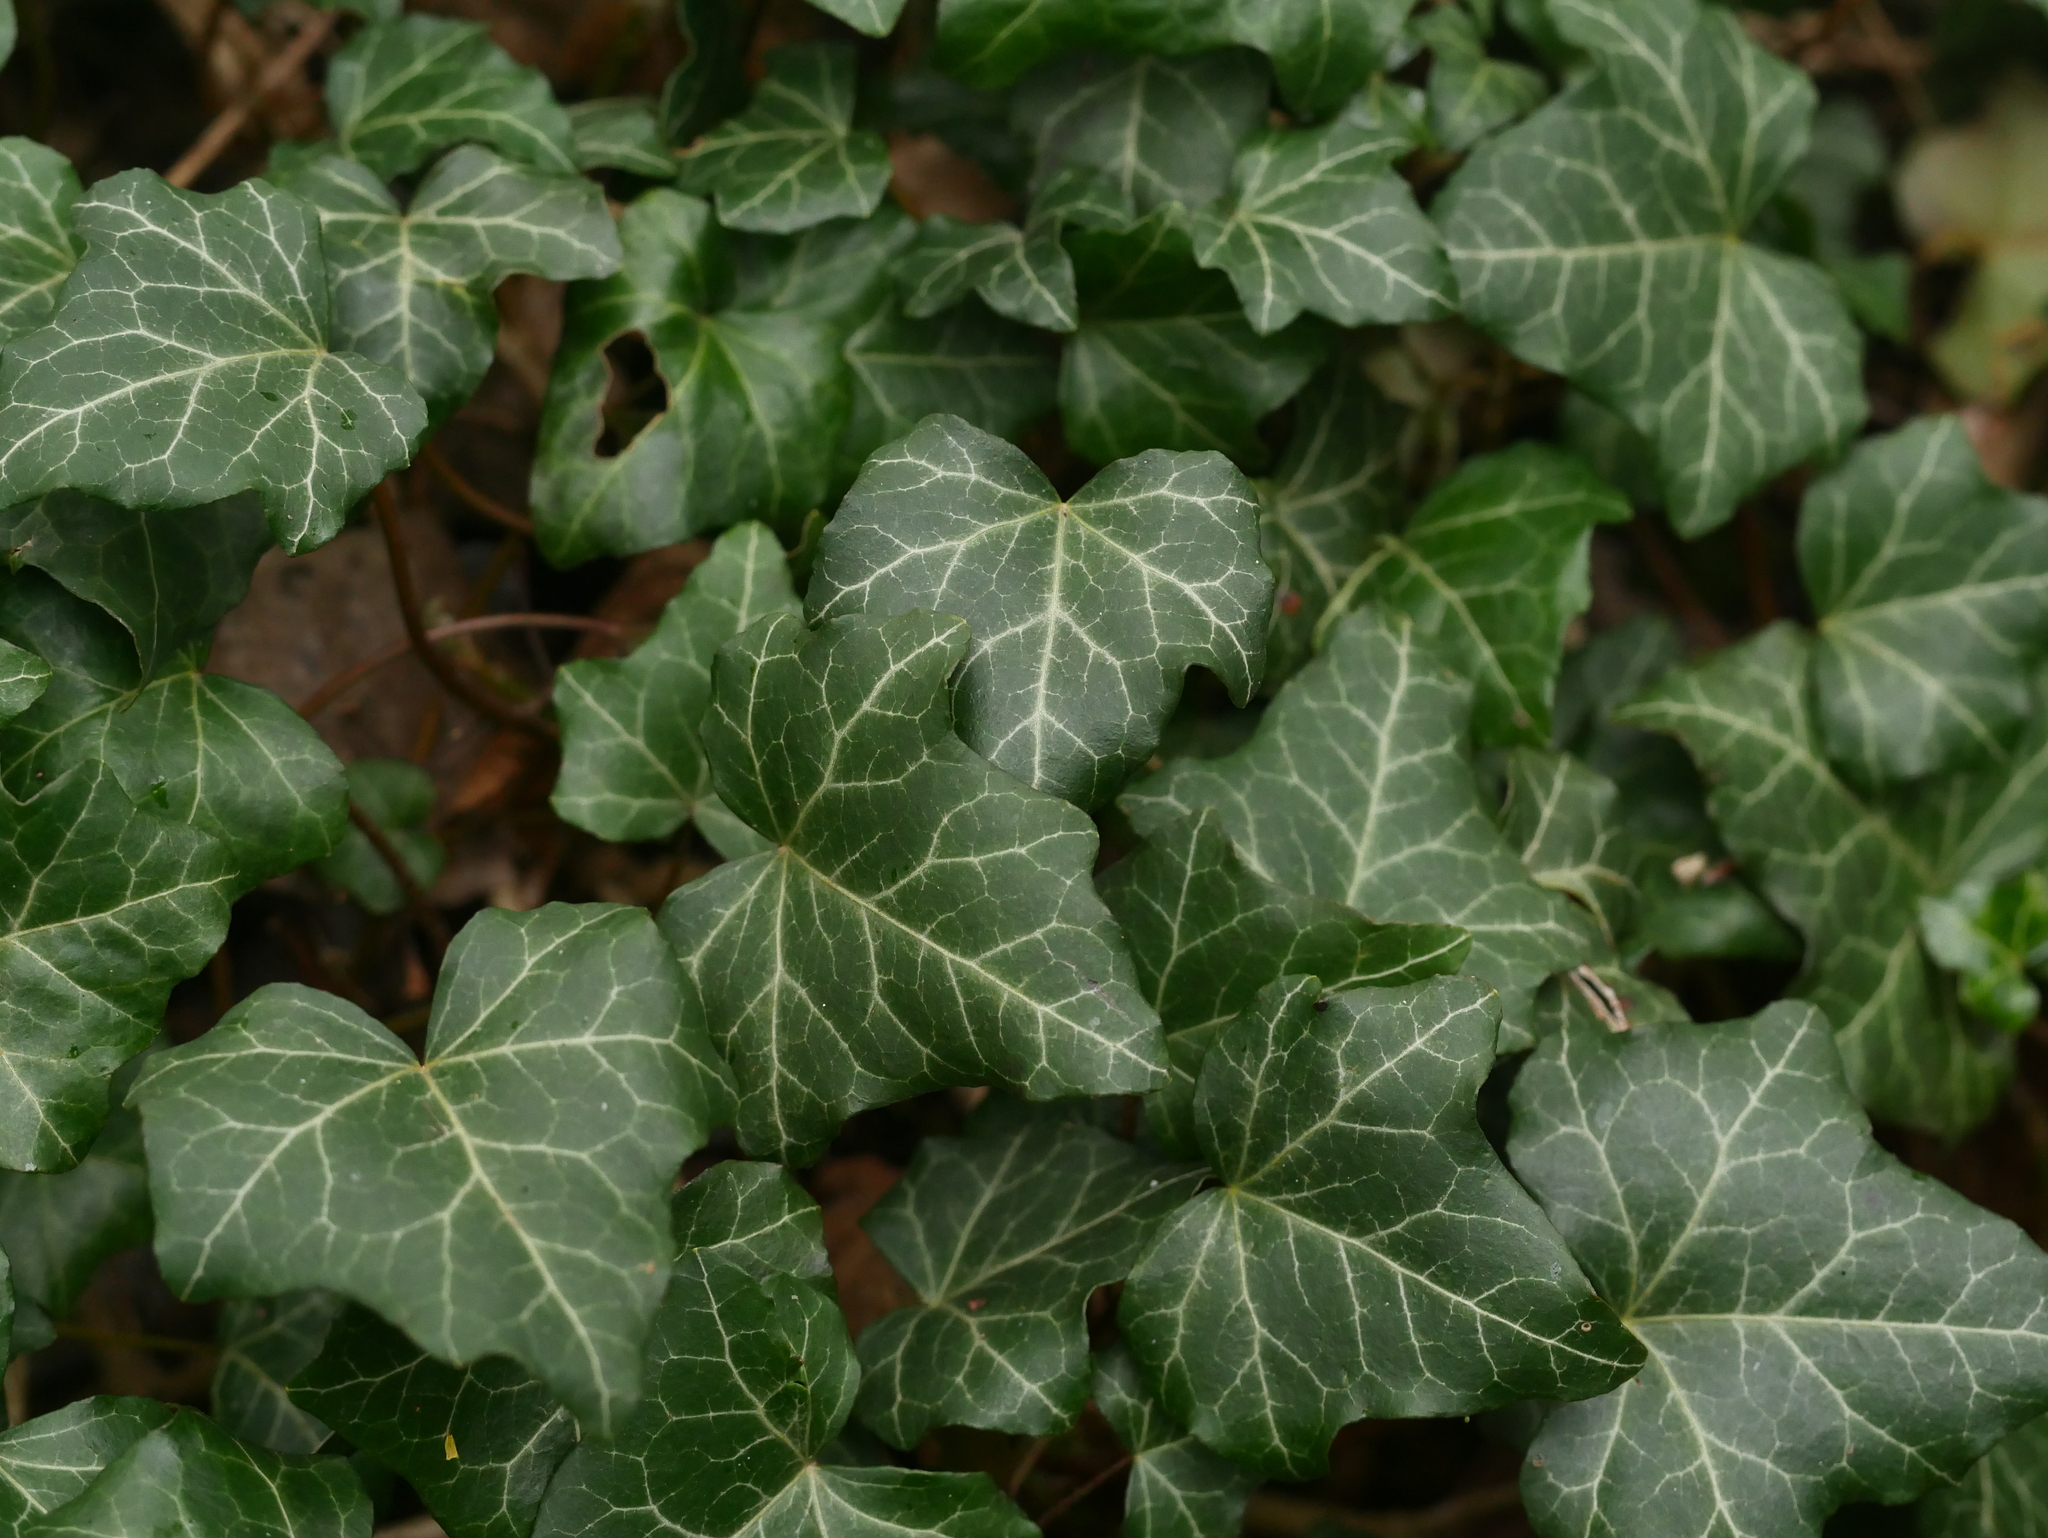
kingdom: Plantae
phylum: Tracheophyta
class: Magnoliopsida
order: Apiales
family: Araliaceae
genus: Hedera
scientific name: Hedera helix
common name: Ivy
